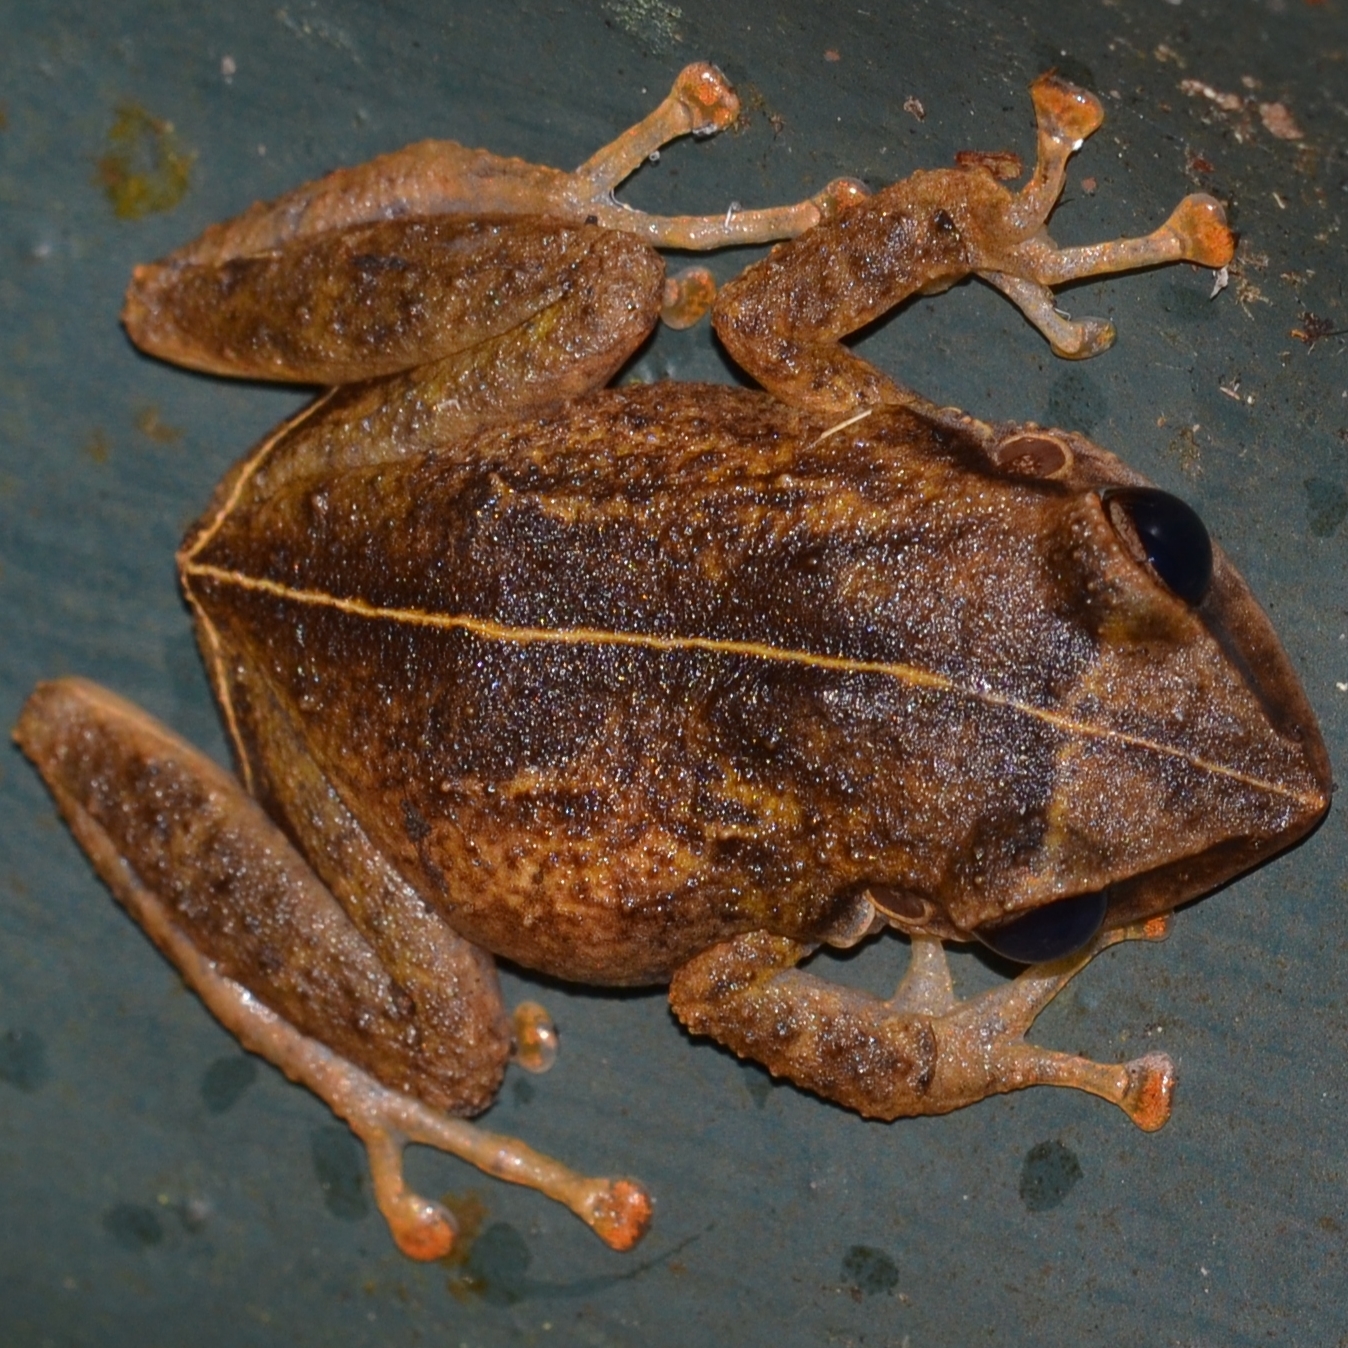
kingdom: Animalia
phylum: Chordata
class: Amphibia
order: Anura
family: Eleutherodactylidae
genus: Eleutherodactylus
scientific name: Eleutherodactylus coqui
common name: Coqui frog
